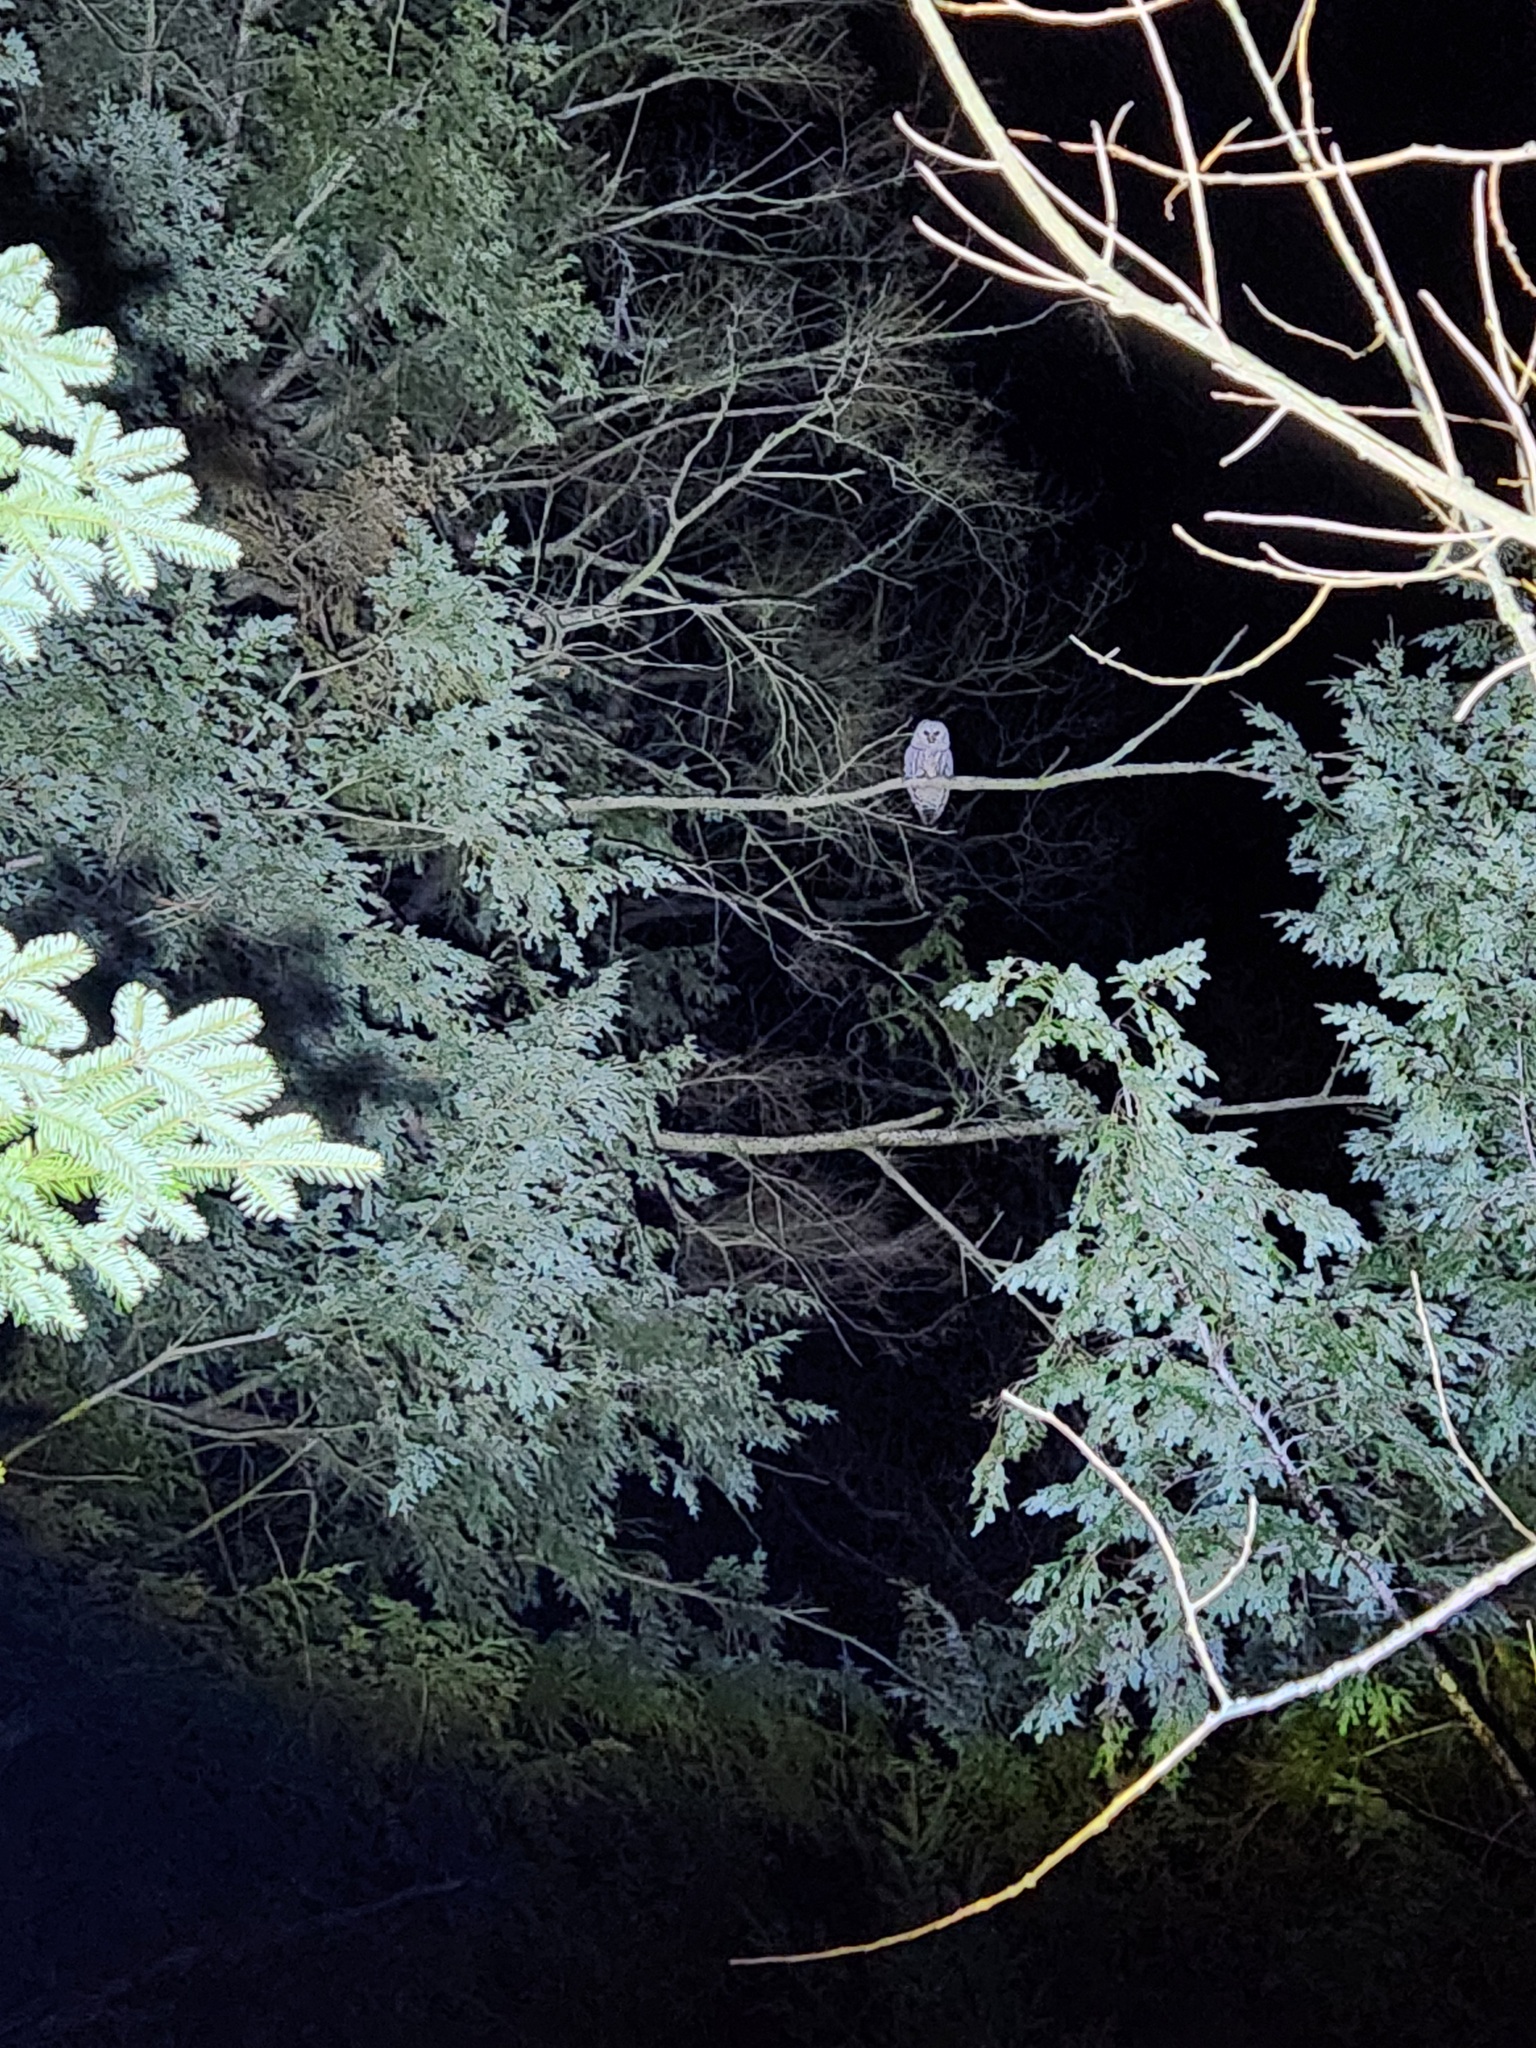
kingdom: Animalia
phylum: Chordata
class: Aves
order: Strigiformes
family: Strigidae
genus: Strix
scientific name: Strix varia
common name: Barred owl
